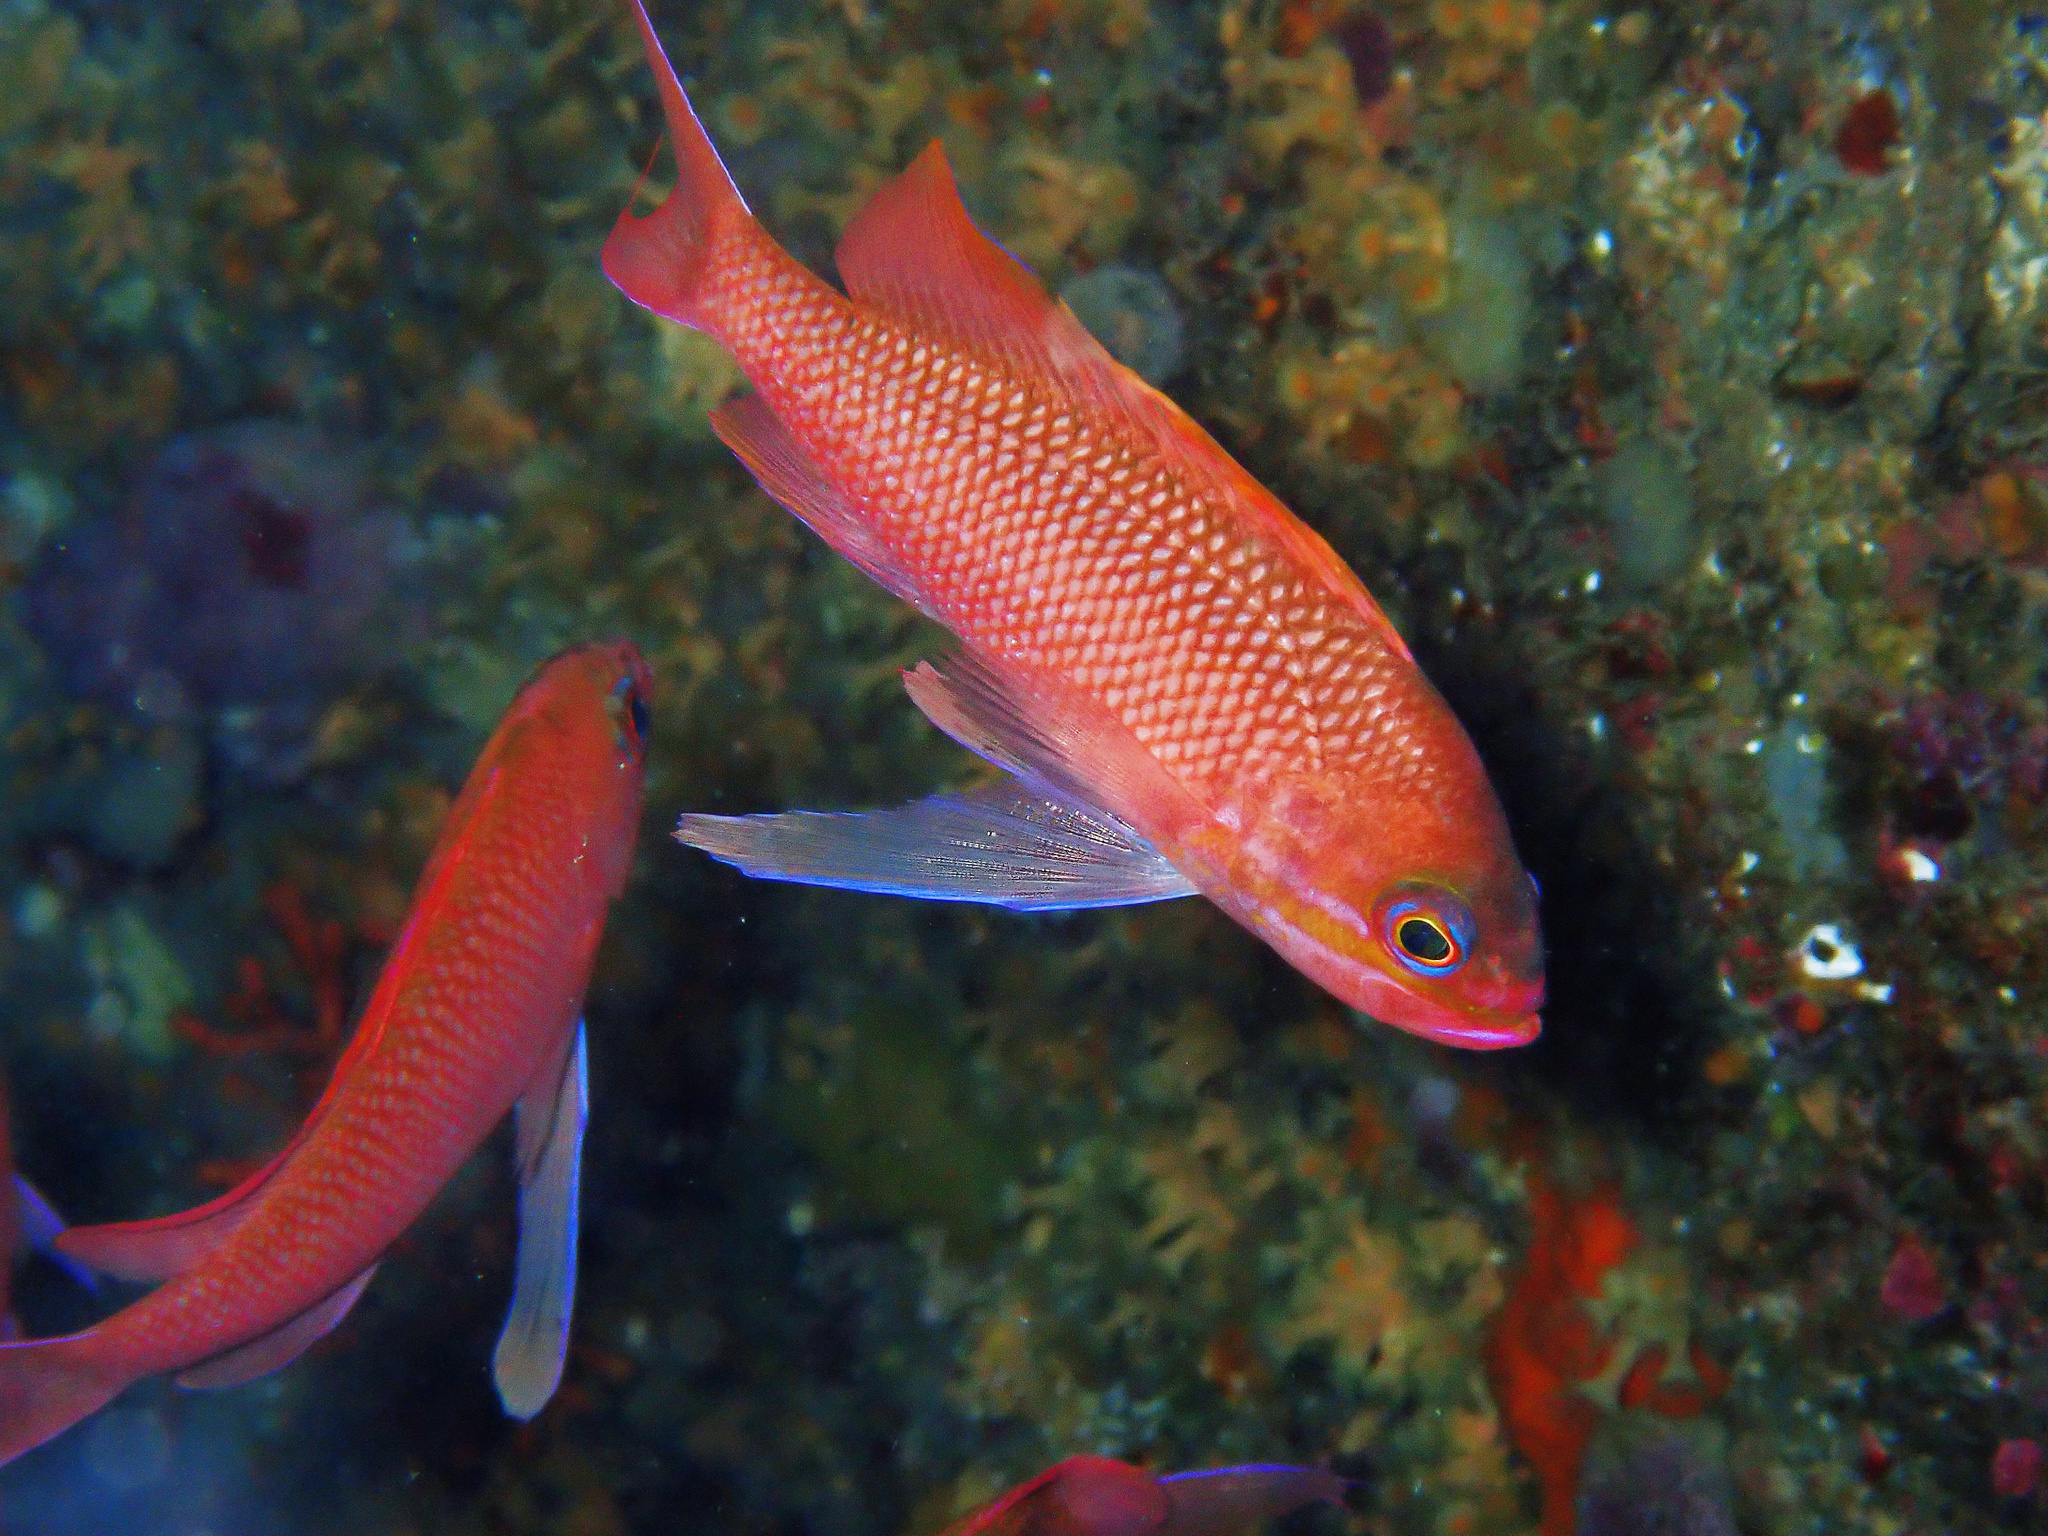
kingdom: Animalia
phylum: Chordata
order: Perciformes
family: Serranidae
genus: Anthias
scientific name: Anthias anthias
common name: Swallowtail seaperch
